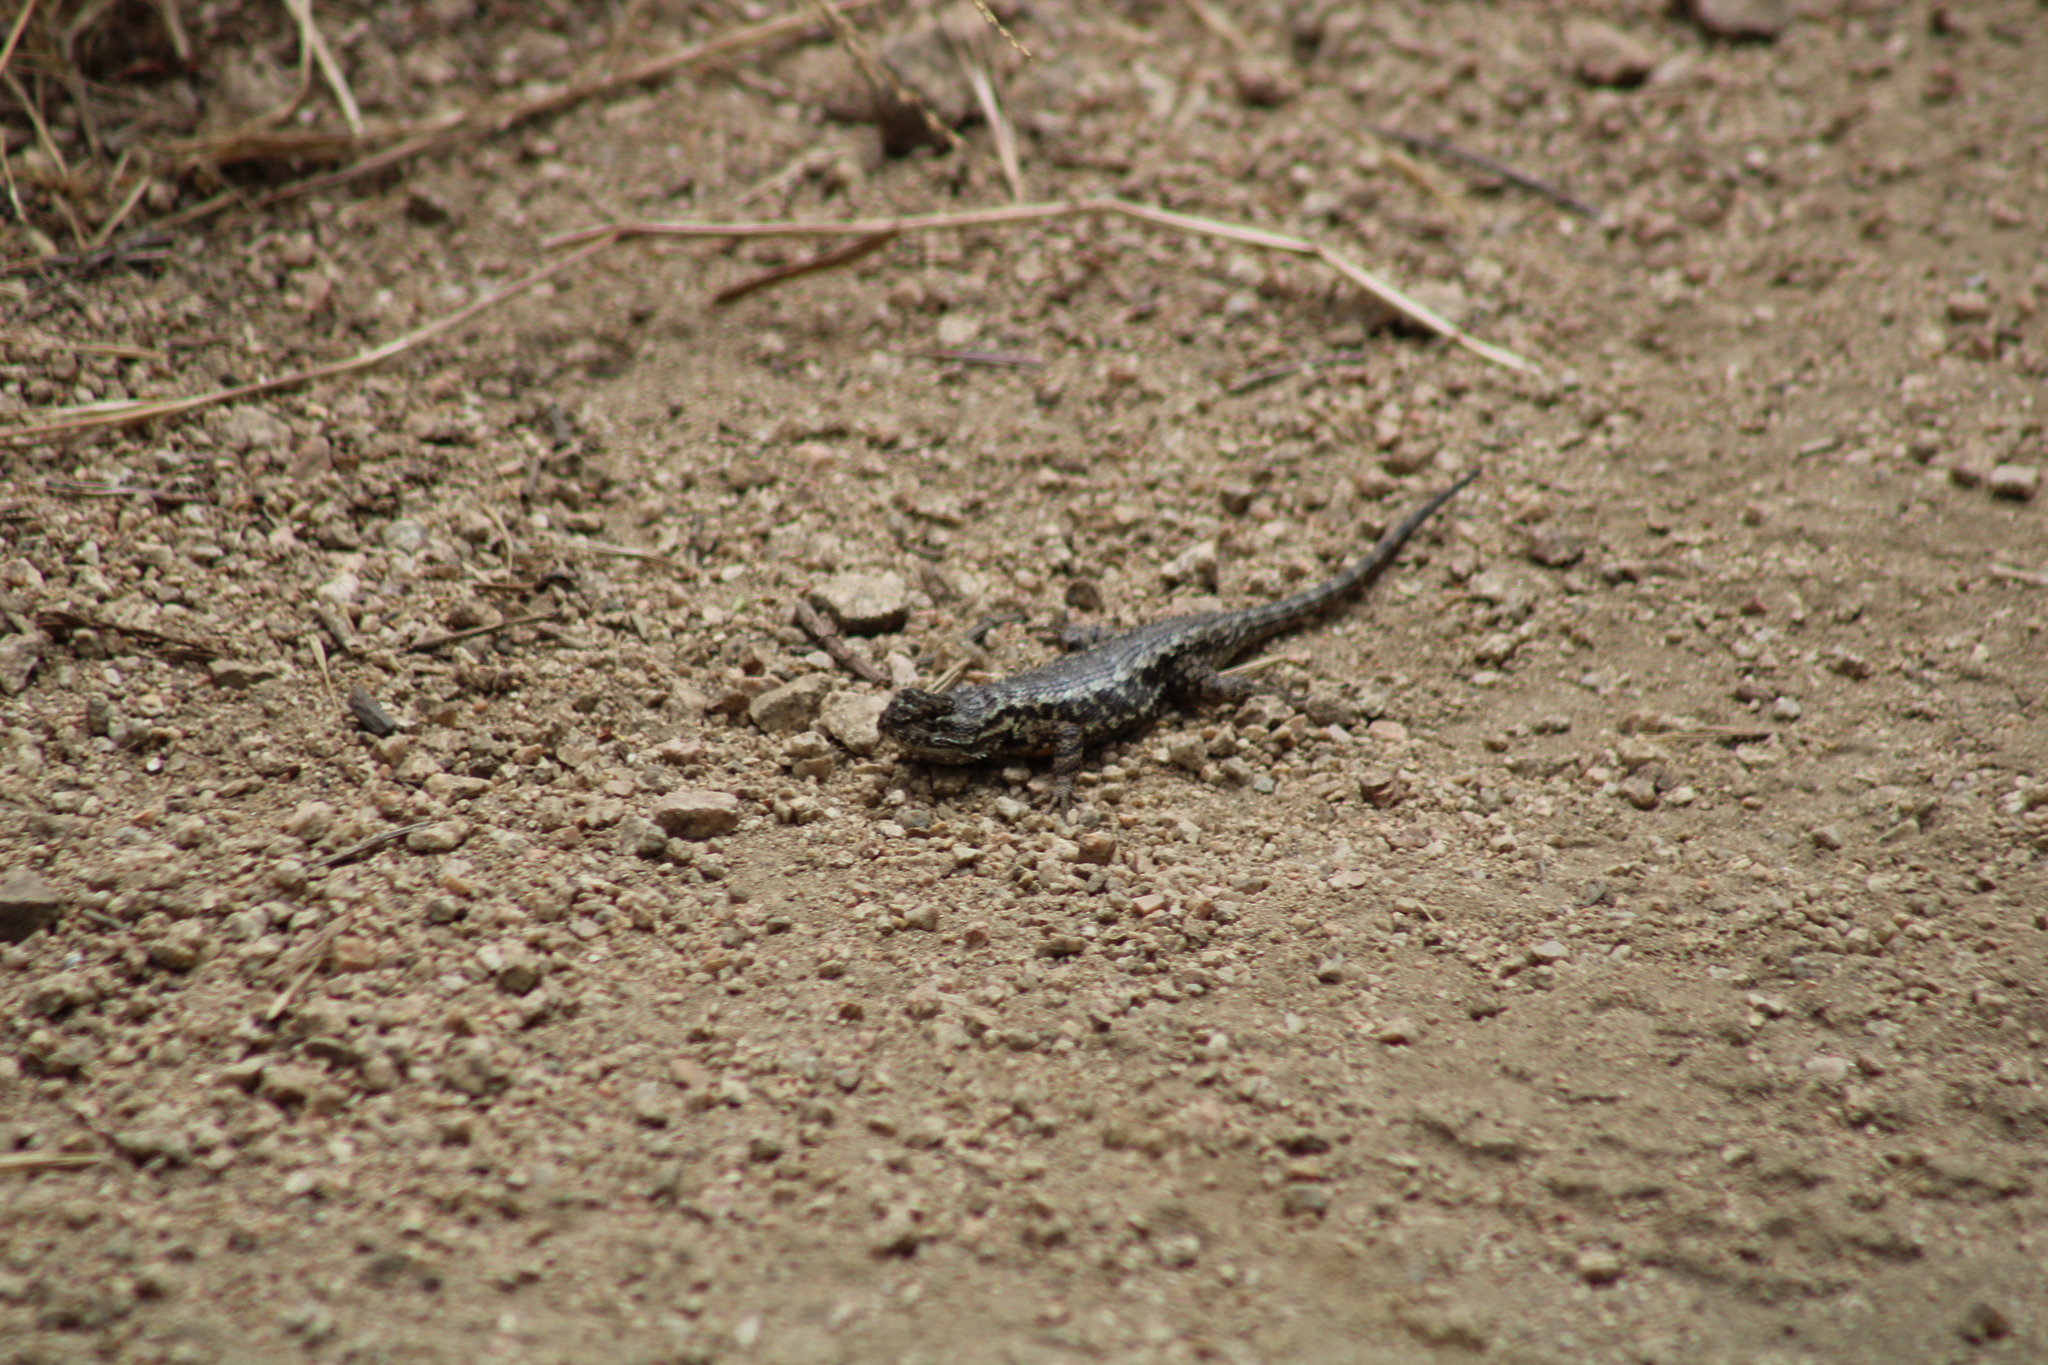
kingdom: Animalia
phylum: Chordata
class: Squamata
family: Phrynosomatidae
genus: Sceloporus
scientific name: Sceloporus occidentalis
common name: Western fence lizard
